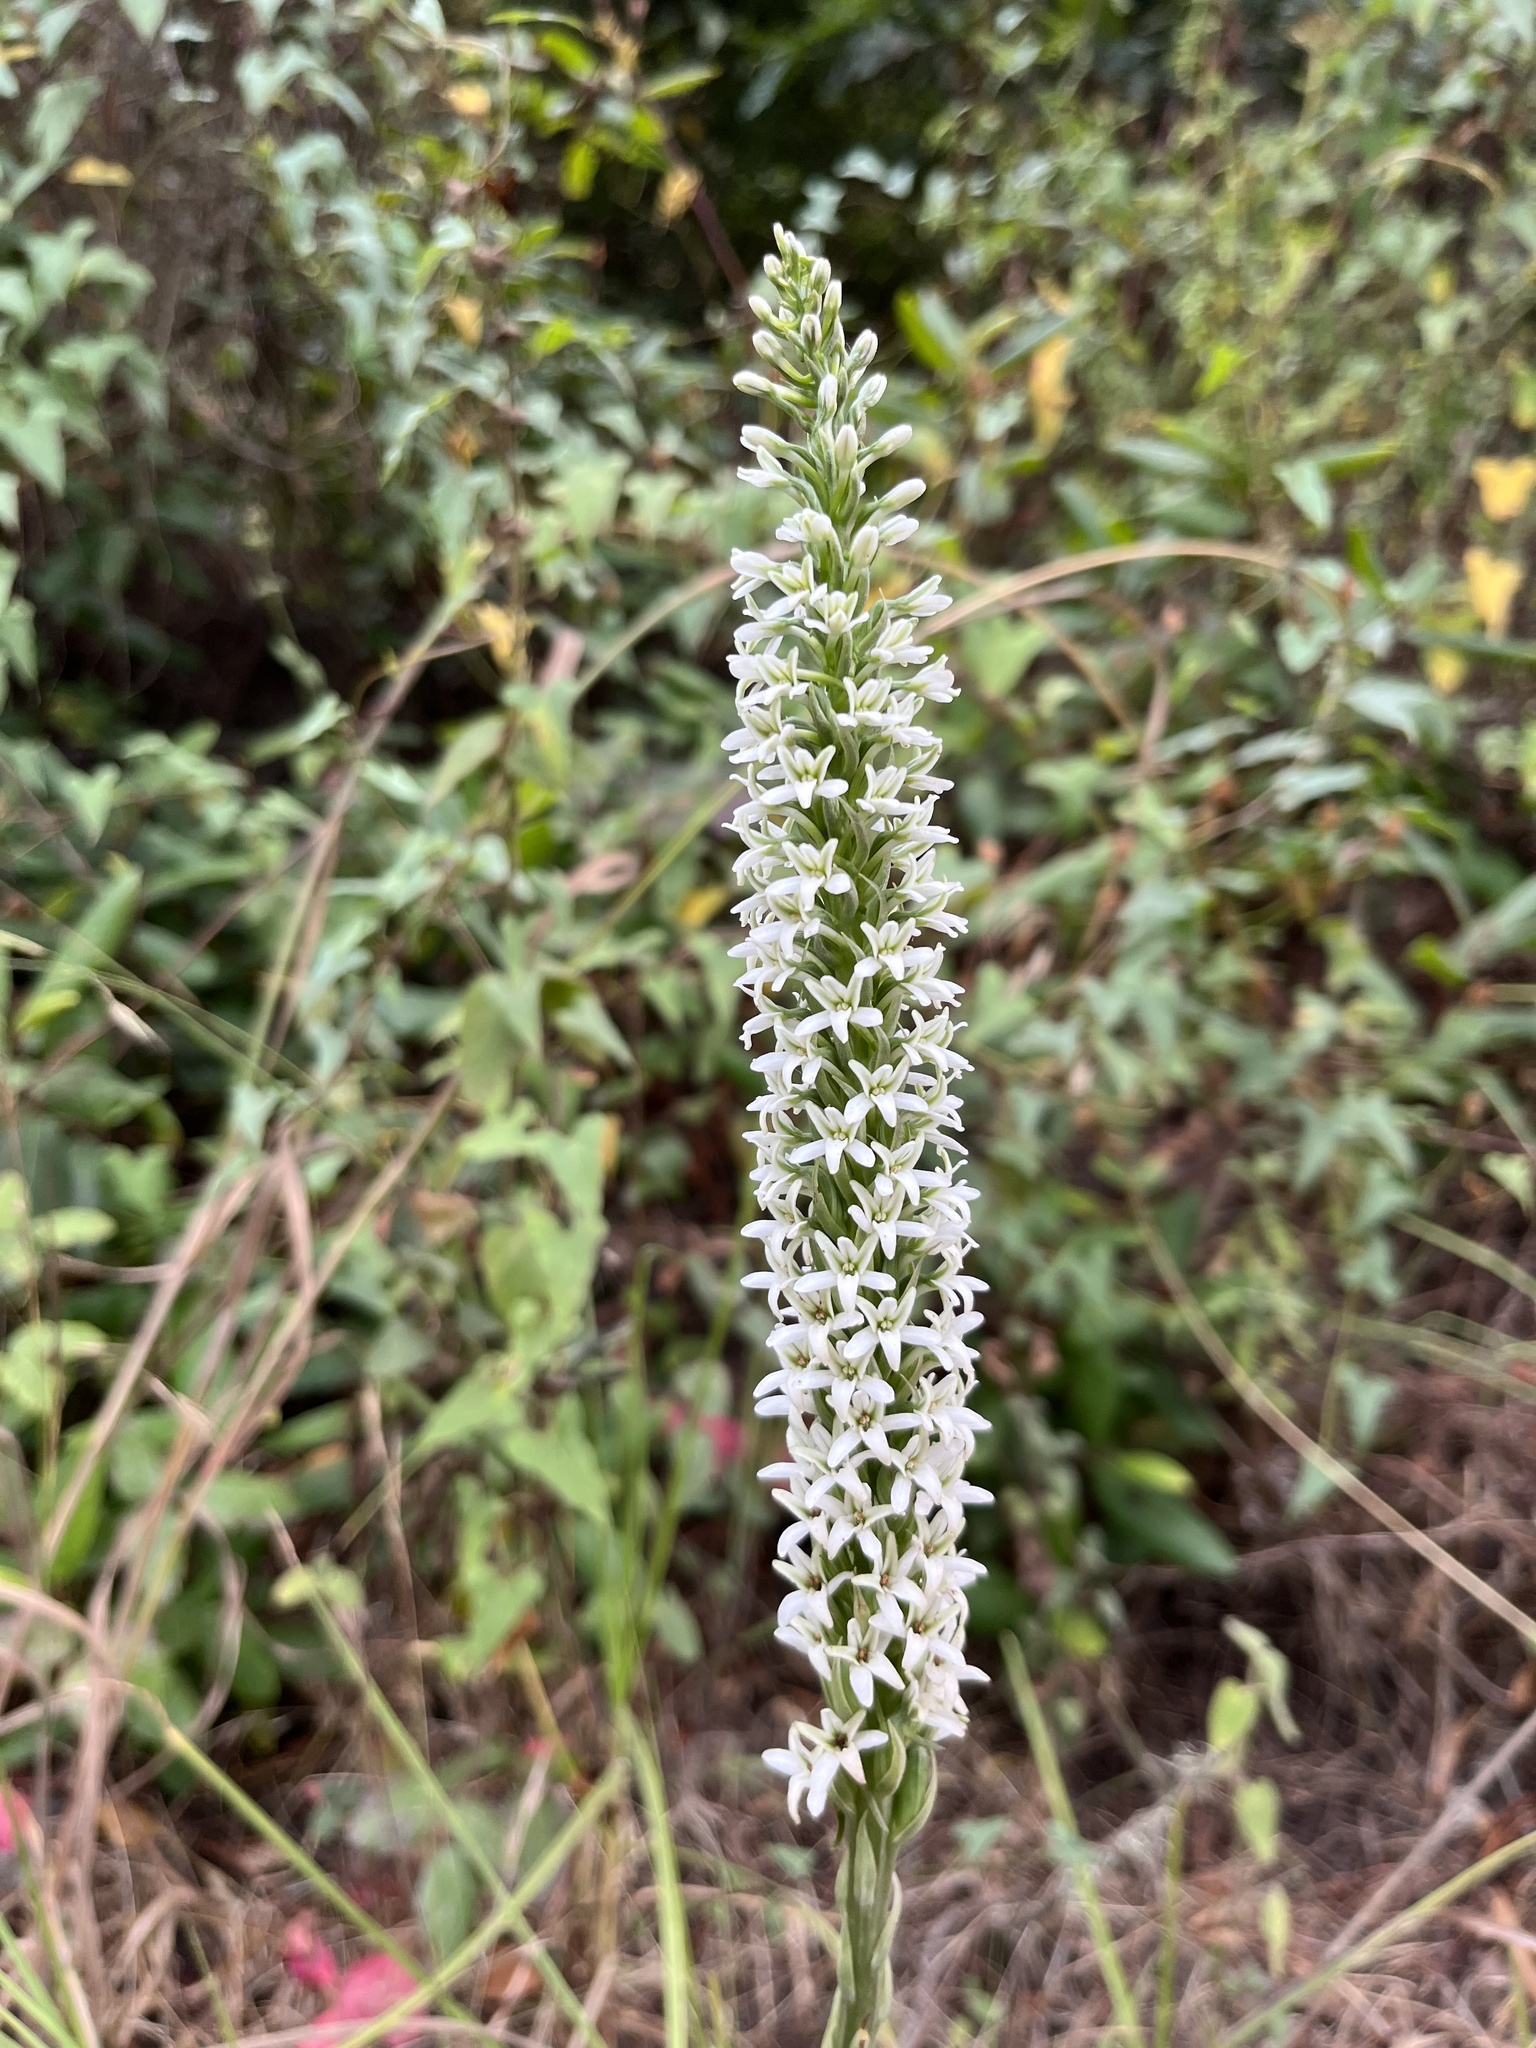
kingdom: Plantae
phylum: Tracheophyta
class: Liliopsida
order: Asparagales
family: Orchidaceae
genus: Platanthera
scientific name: Platanthera elegans
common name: Coast piperia
